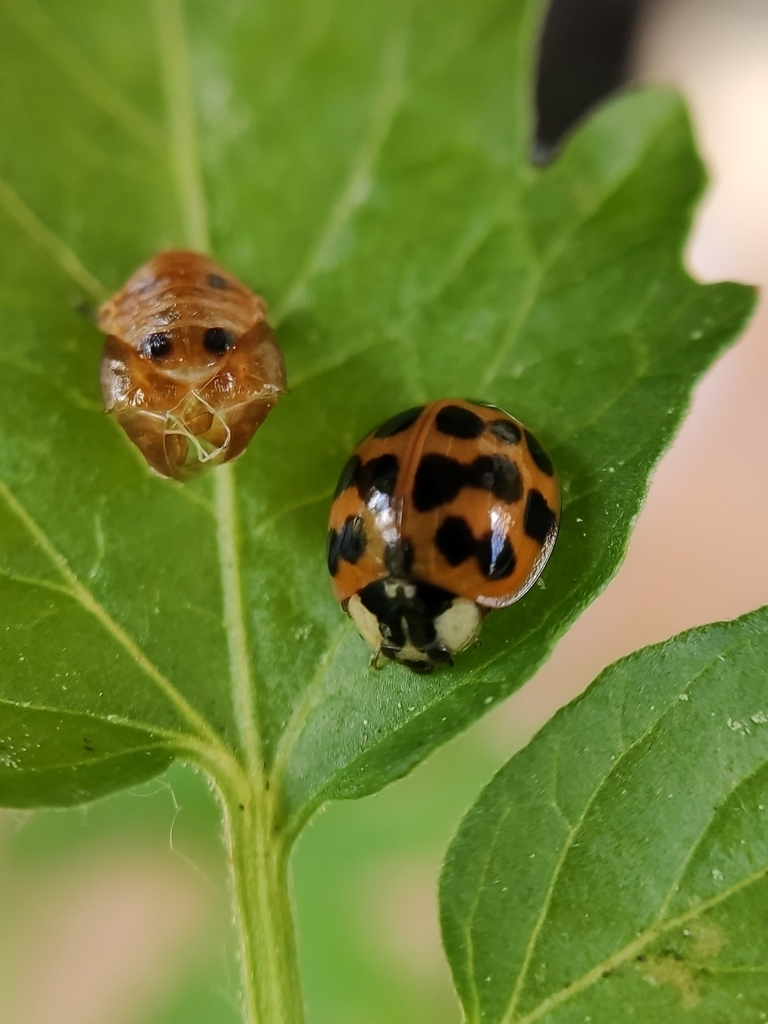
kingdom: Animalia
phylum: Arthropoda
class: Insecta
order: Coleoptera
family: Coccinellidae
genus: Harmonia
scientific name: Harmonia axyridis
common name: Harlequin ladybird
